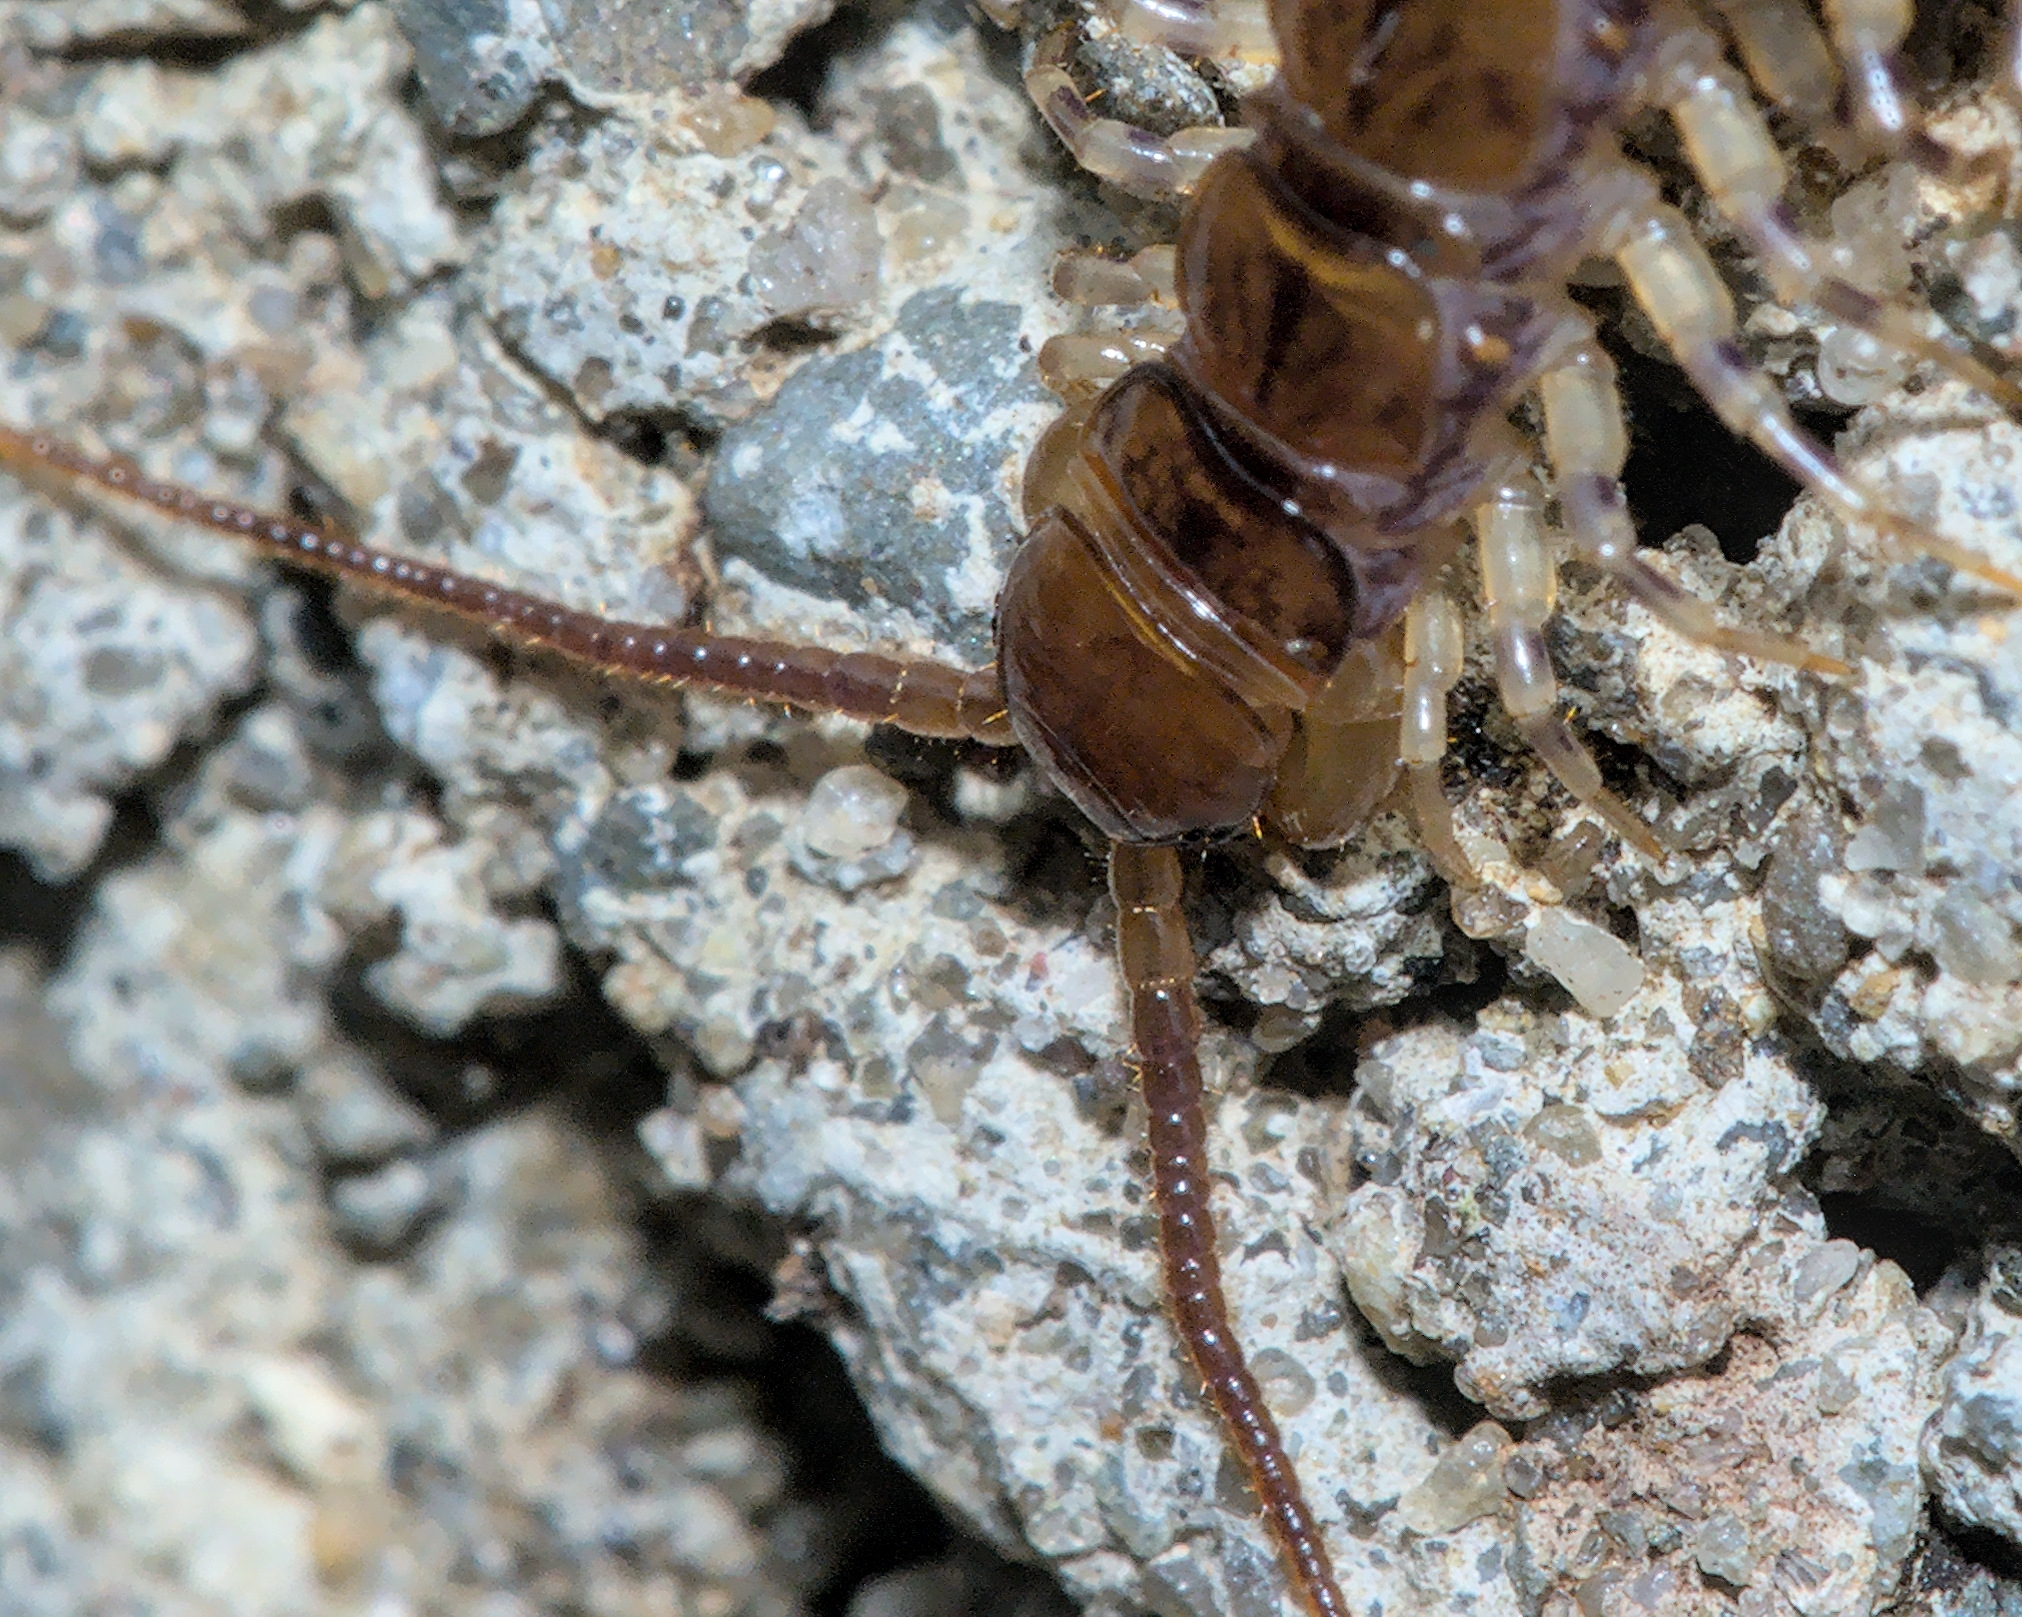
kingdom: Animalia
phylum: Arthropoda
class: Chilopoda
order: Lithobiomorpha
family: Lithobiidae
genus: Lithobius
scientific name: Lithobius variegatus
